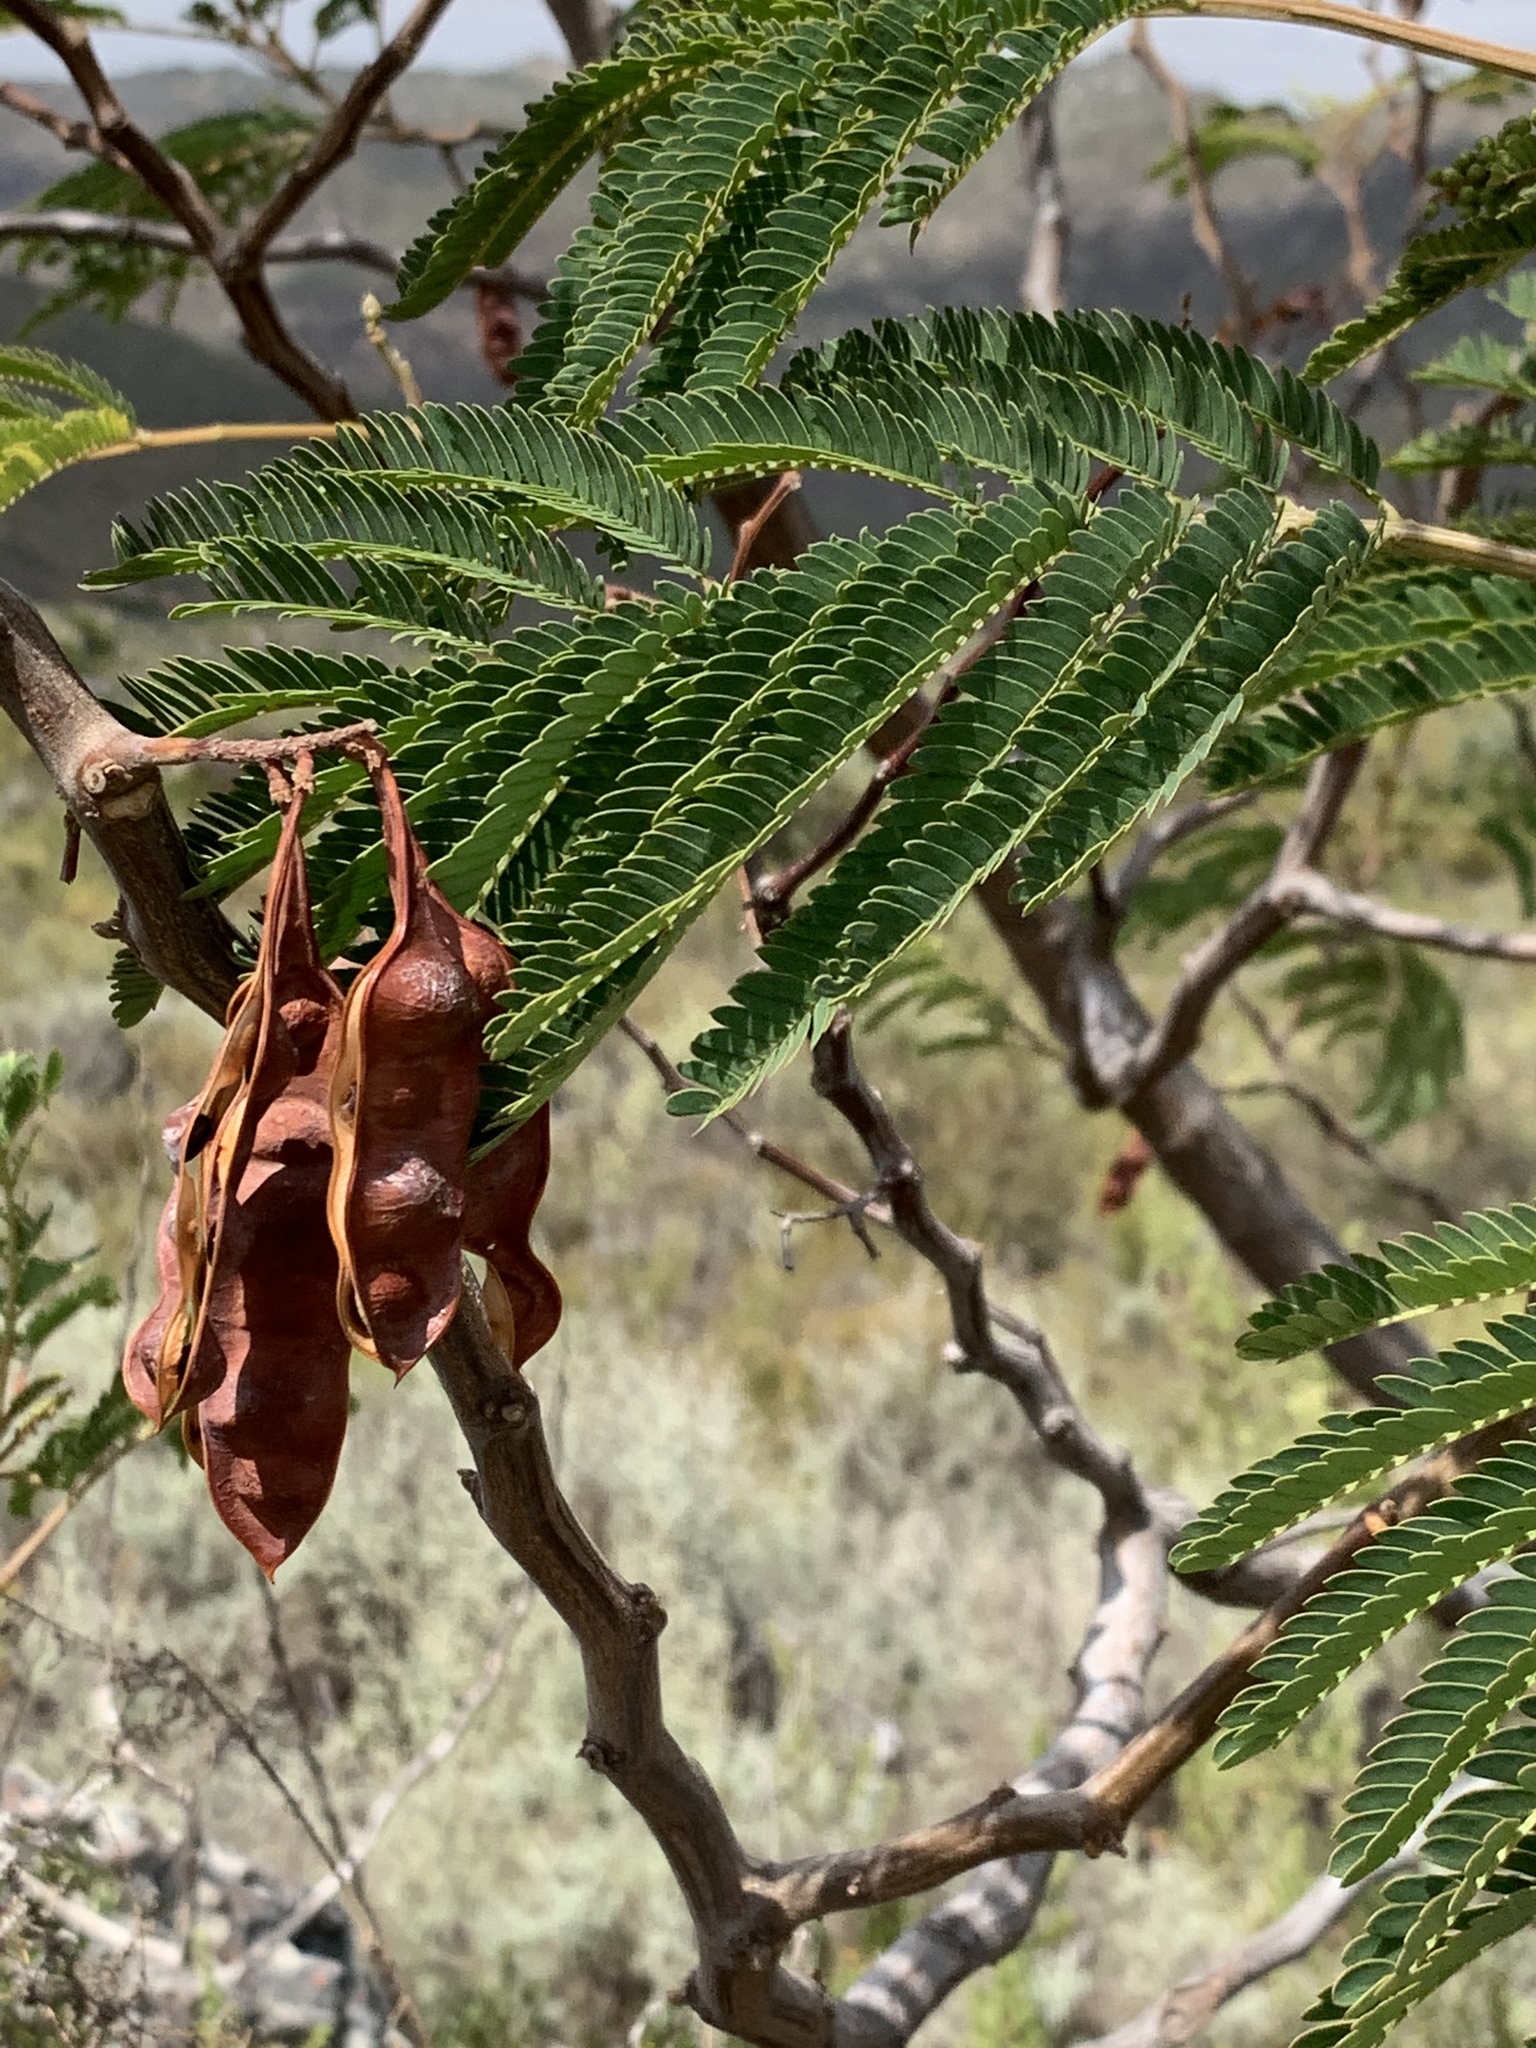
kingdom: Plantae
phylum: Tracheophyta
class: Magnoliopsida
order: Fabales
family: Fabaceae
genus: Paraserianthes
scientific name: Paraserianthes lophantha
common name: Plume albizia
